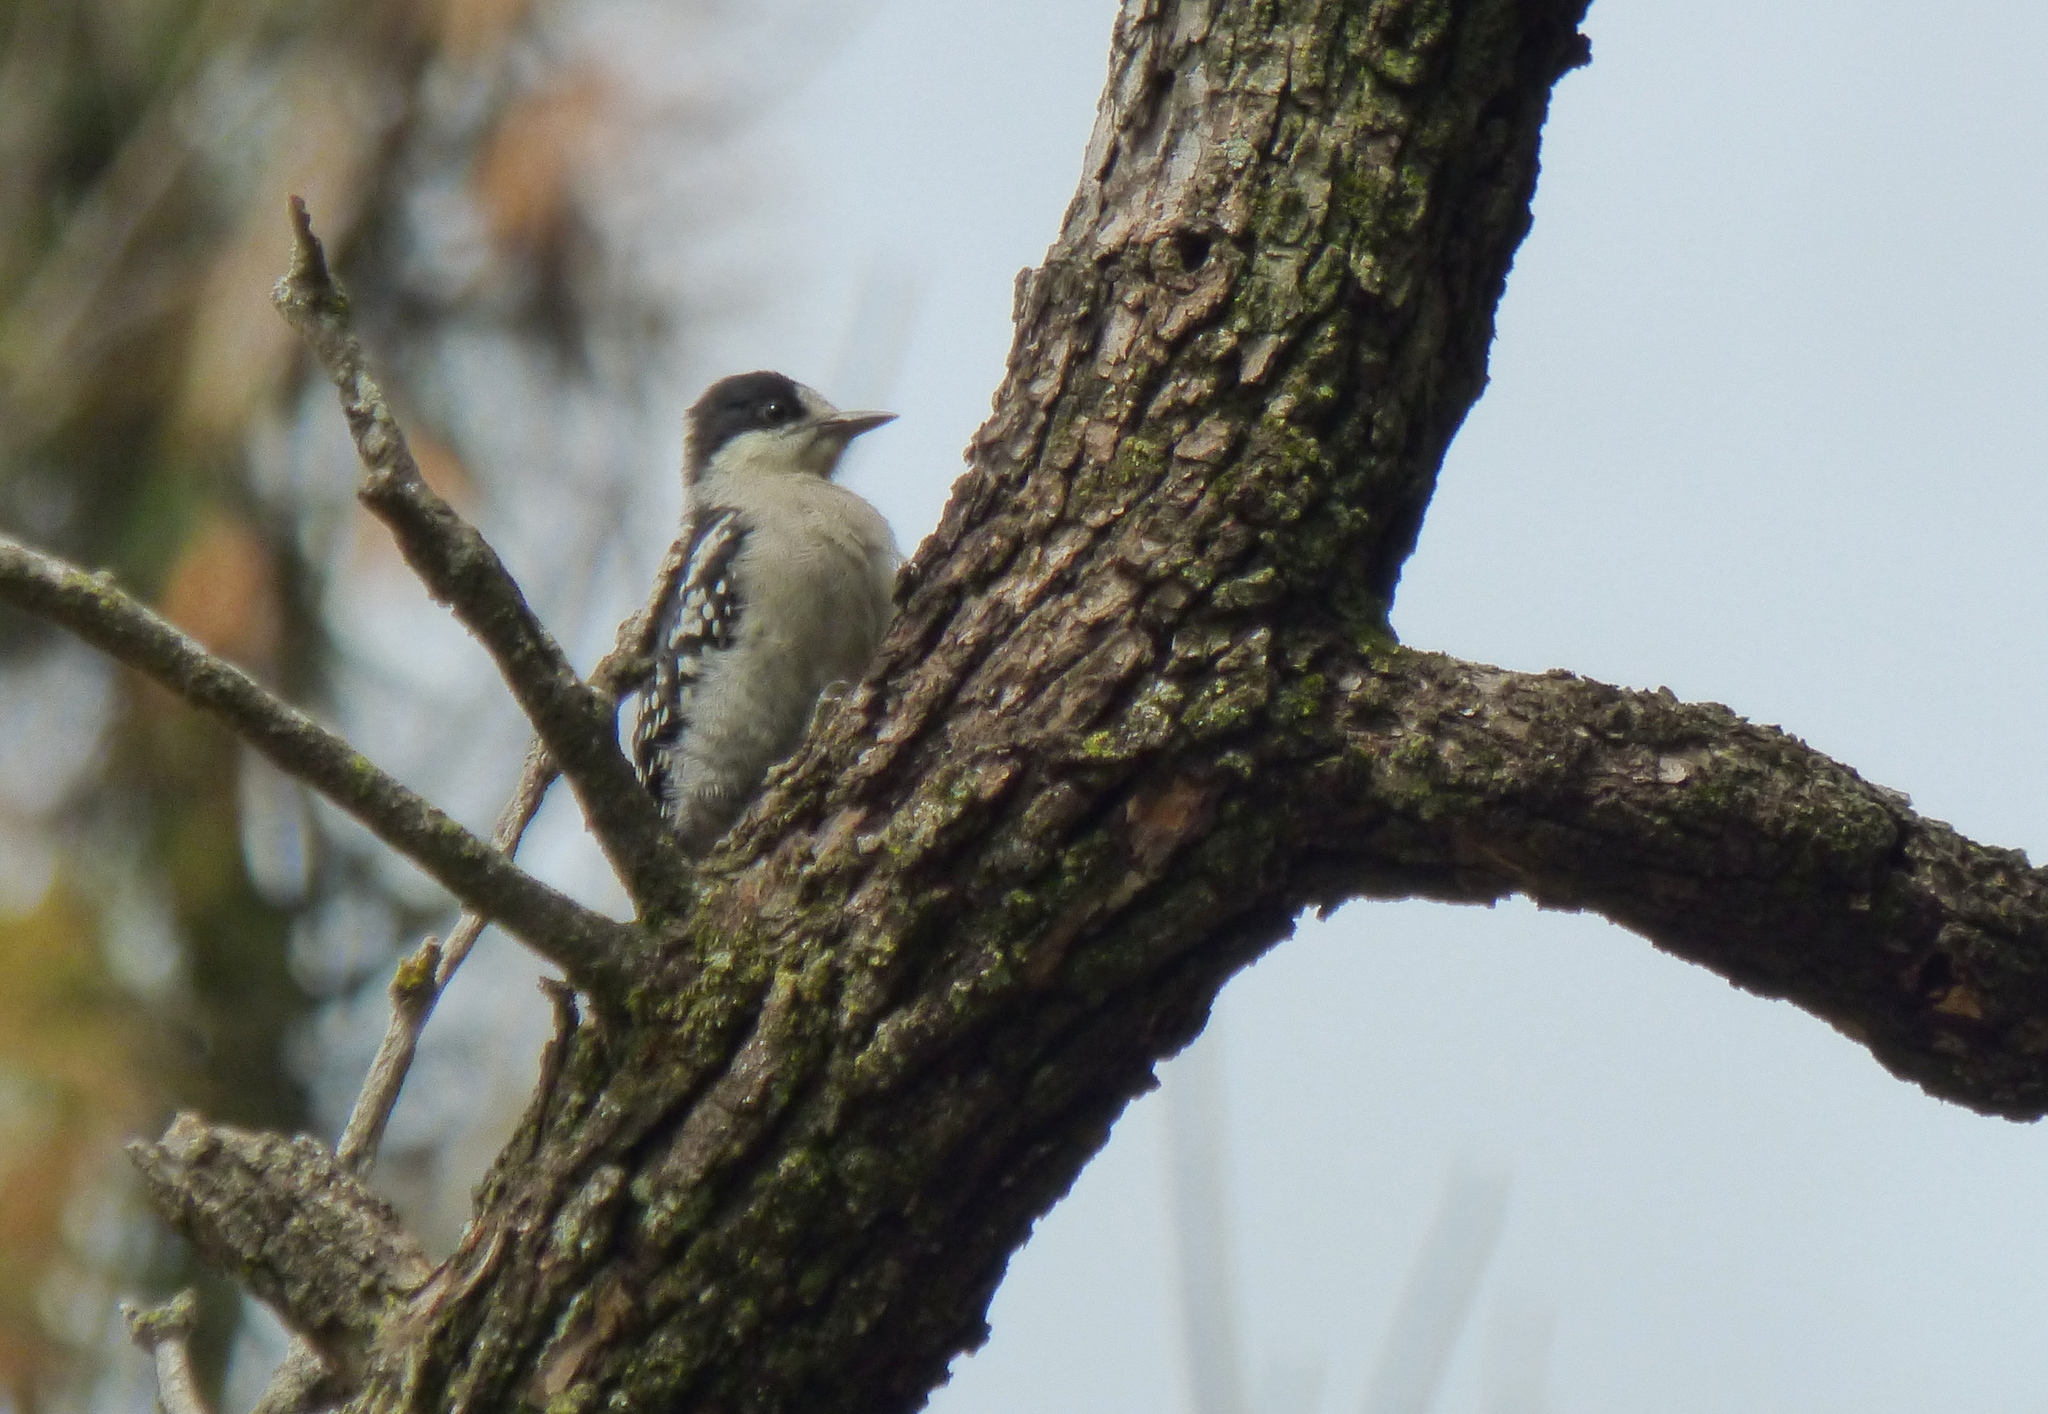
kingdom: Animalia
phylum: Chordata
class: Aves
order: Piciformes
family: Picidae
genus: Melanerpes
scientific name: Melanerpes cactorum
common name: White-fronted woodpecker
